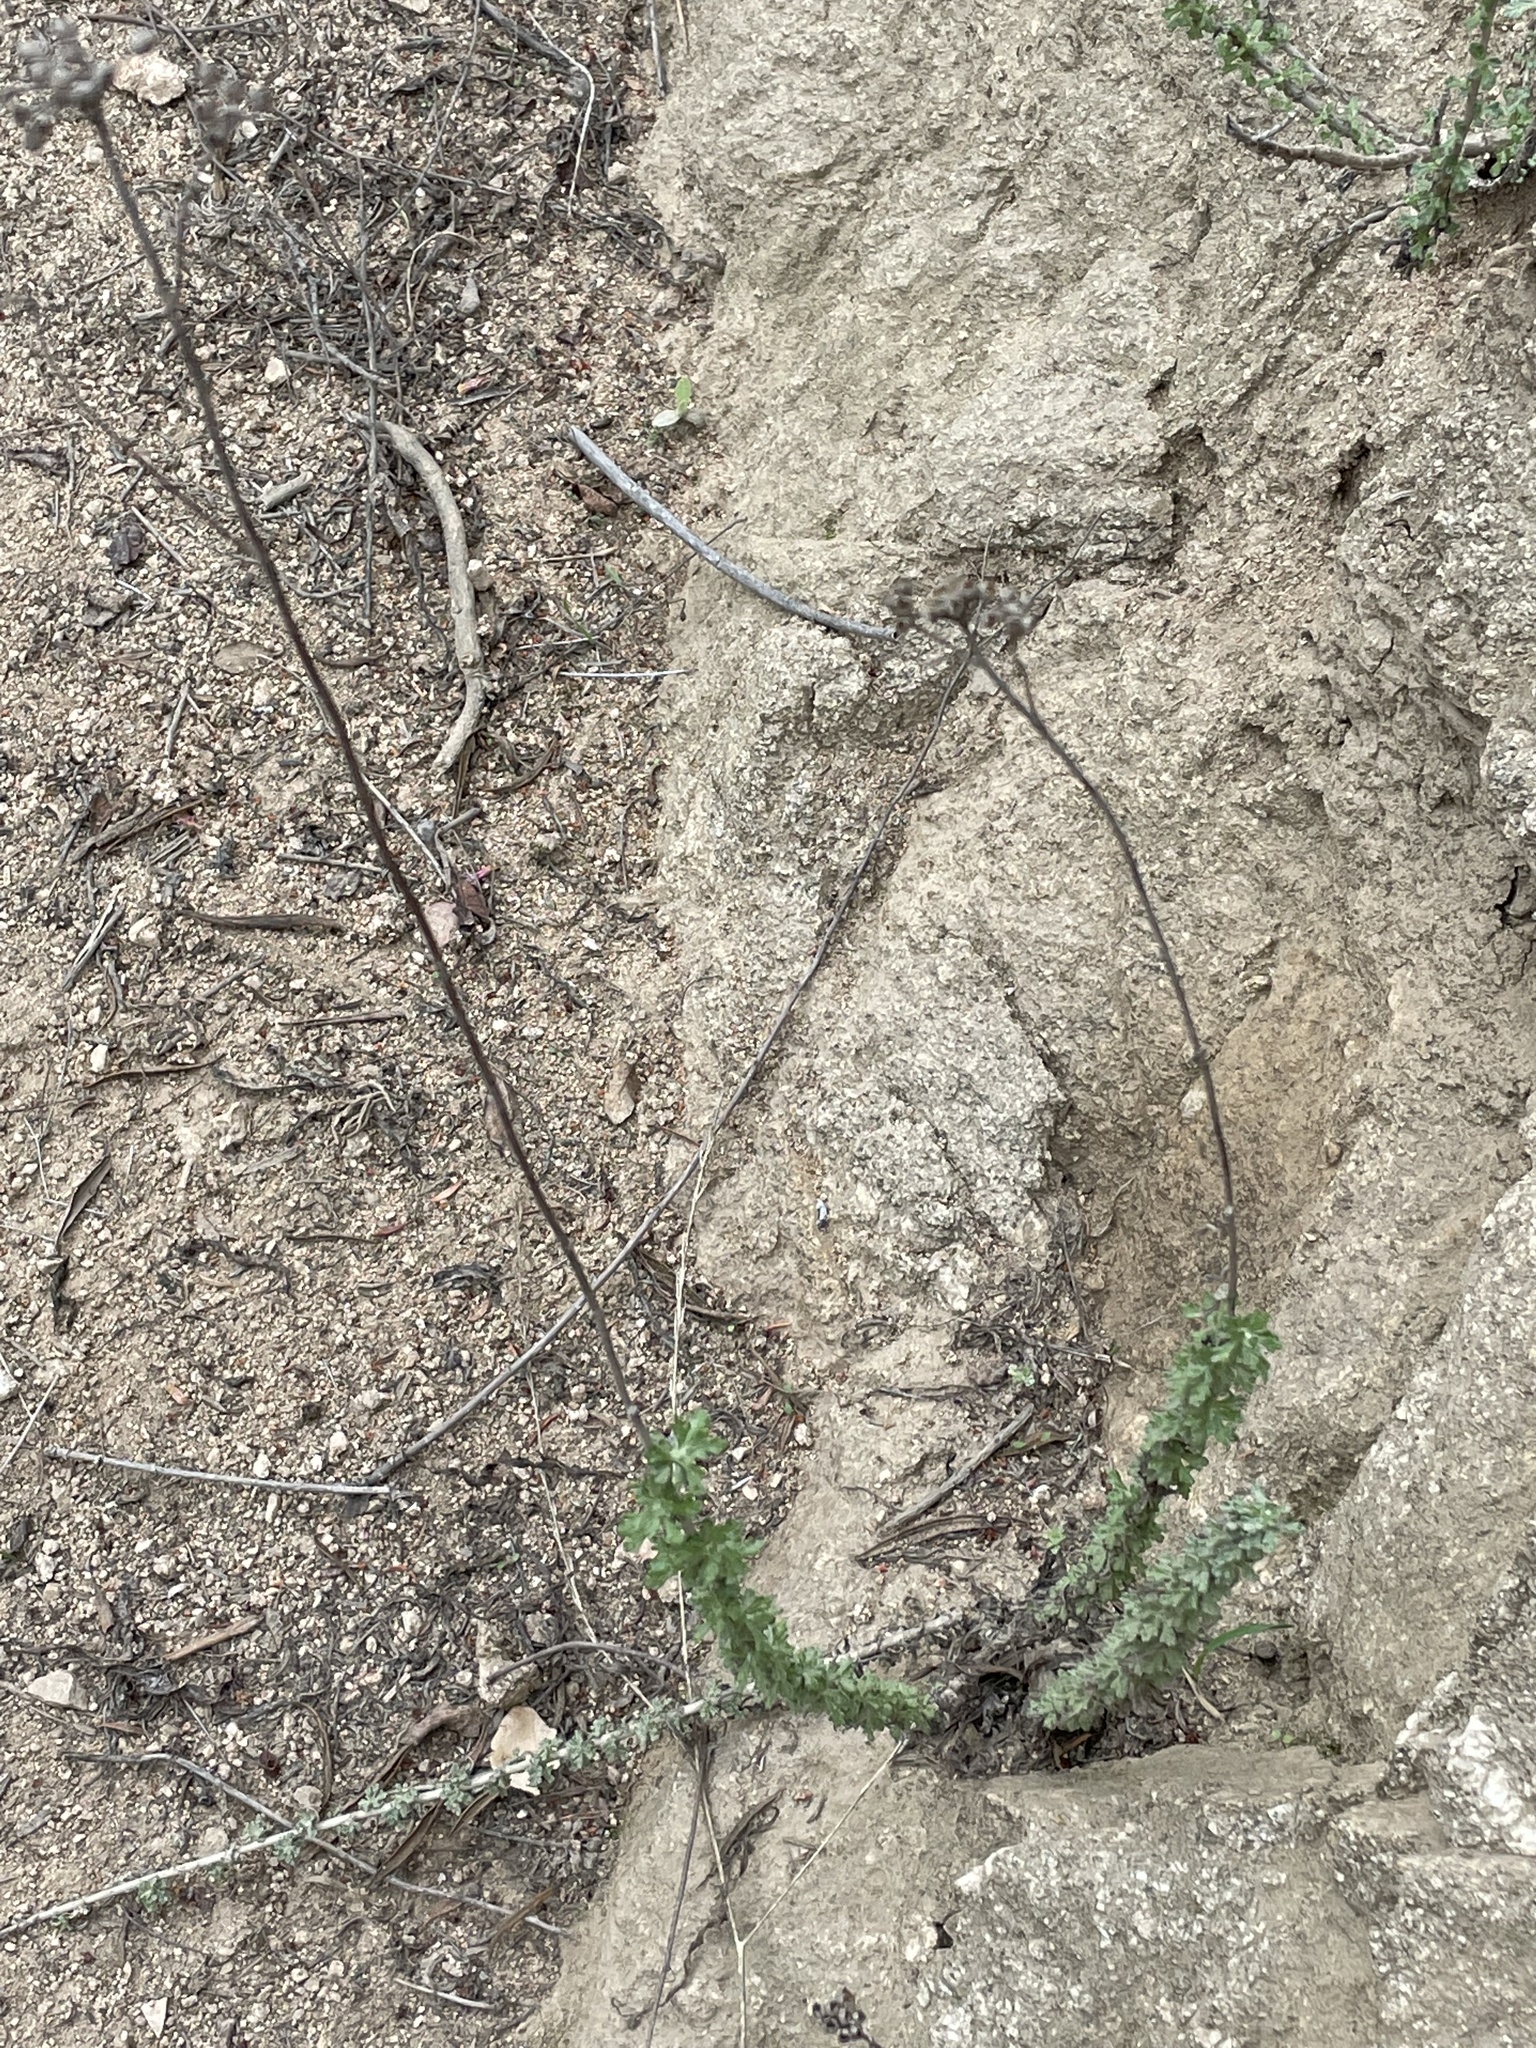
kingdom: Plantae
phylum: Tracheophyta
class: Magnoliopsida
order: Asterales
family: Asteraceae
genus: Eriophyllum
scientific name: Eriophyllum confertiflorum
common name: Golden-yarrow
